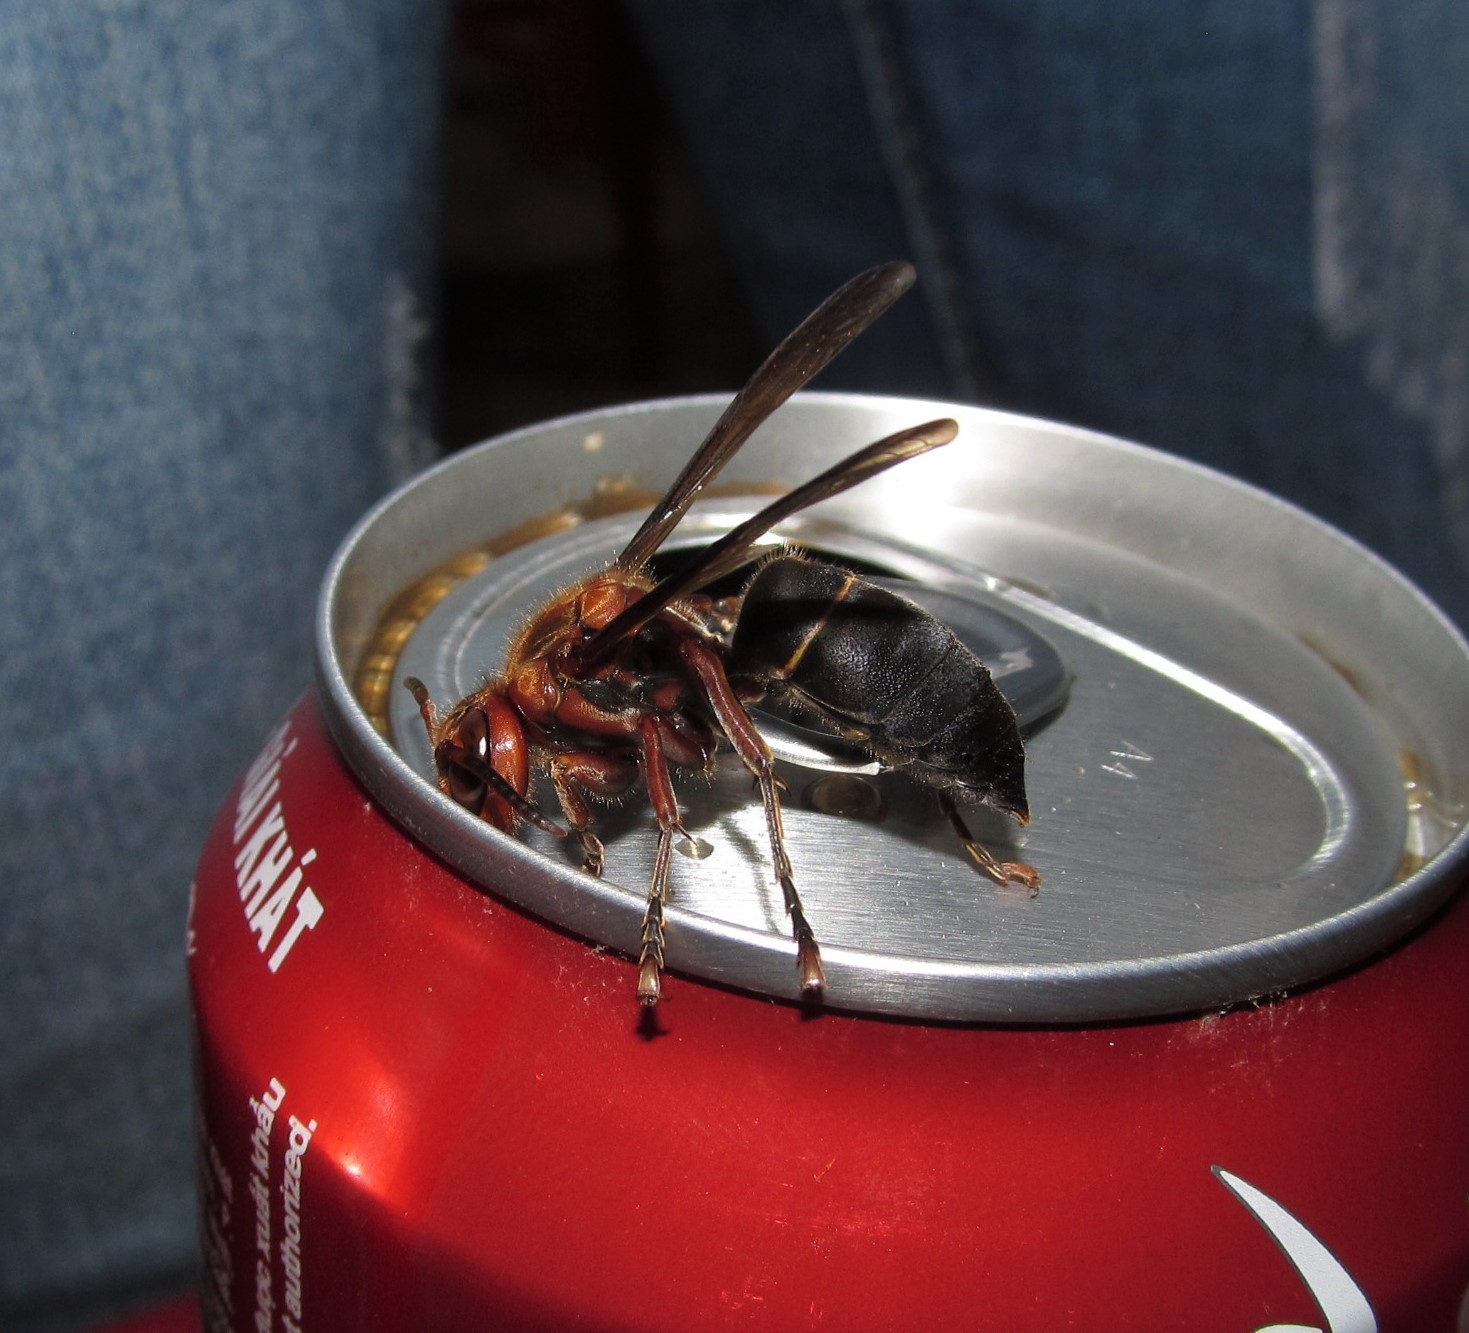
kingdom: Animalia
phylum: Arthropoda
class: Insecta
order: Hymenoptera
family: Vespidae
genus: Vespa
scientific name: Vespa basalis
